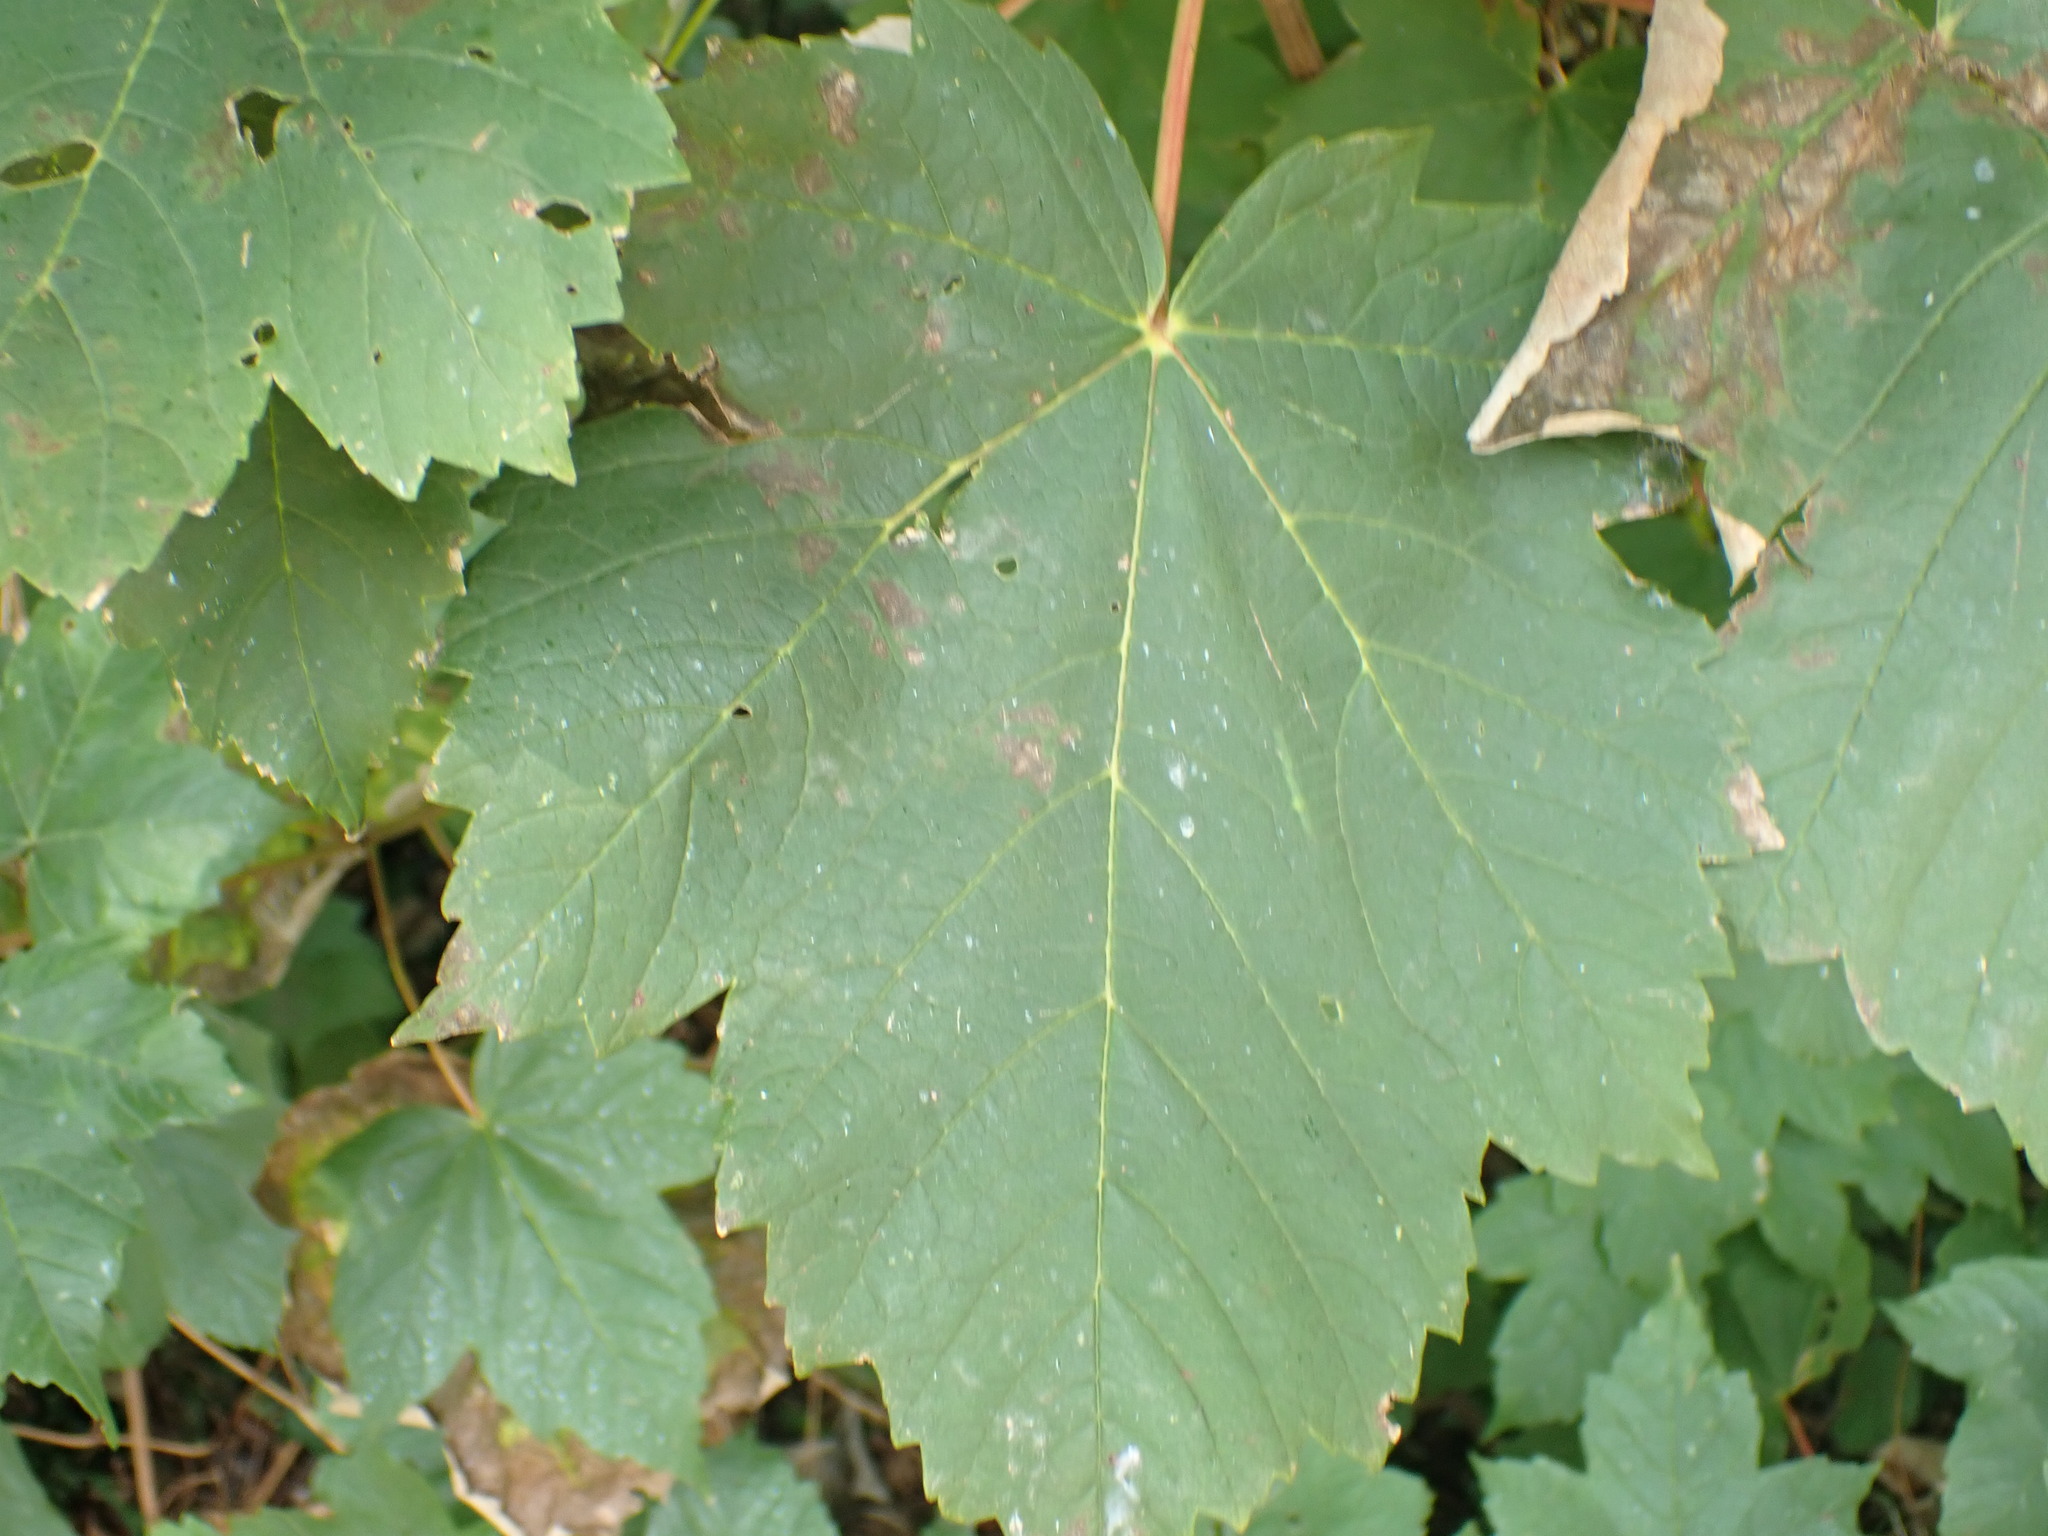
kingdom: Plantae
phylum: Tracheophyta
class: Magnoliopsida
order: Sapindales
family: Sapindaceae
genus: Acer
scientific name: Acer pseudoplatanus
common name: Sycamore
